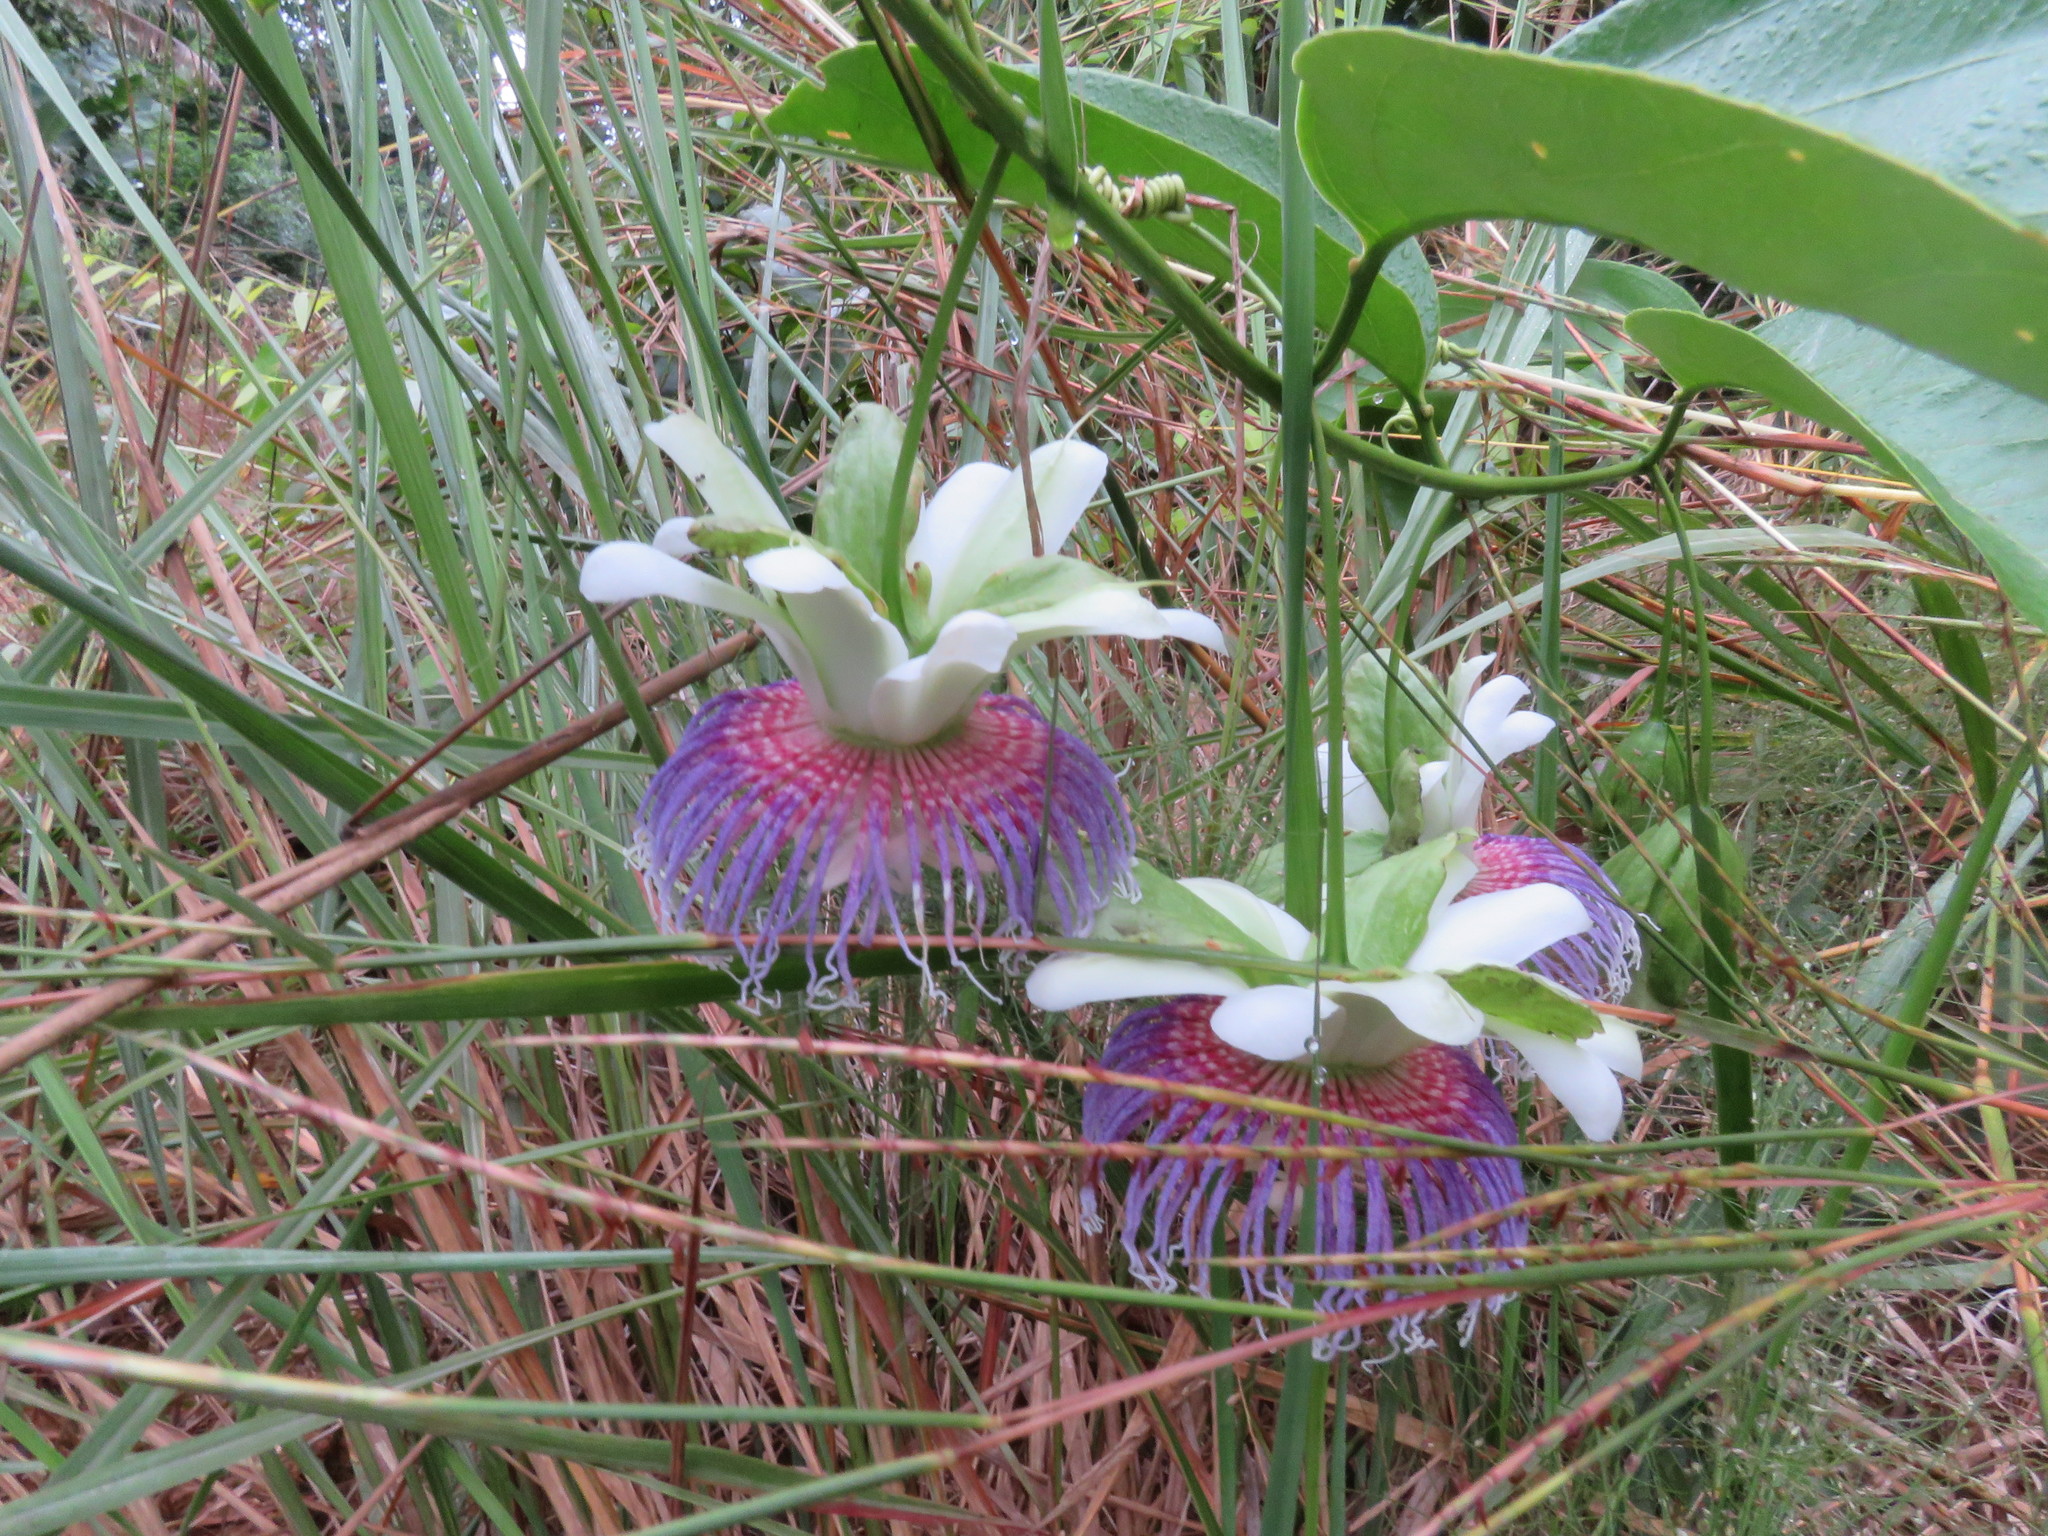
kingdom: Plantae
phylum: Tracheophyta
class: Magnoliopsida
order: Malpighiales
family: Passifloraceae
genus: Passiflora
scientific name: Passiflora nitida
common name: Bell-apple
